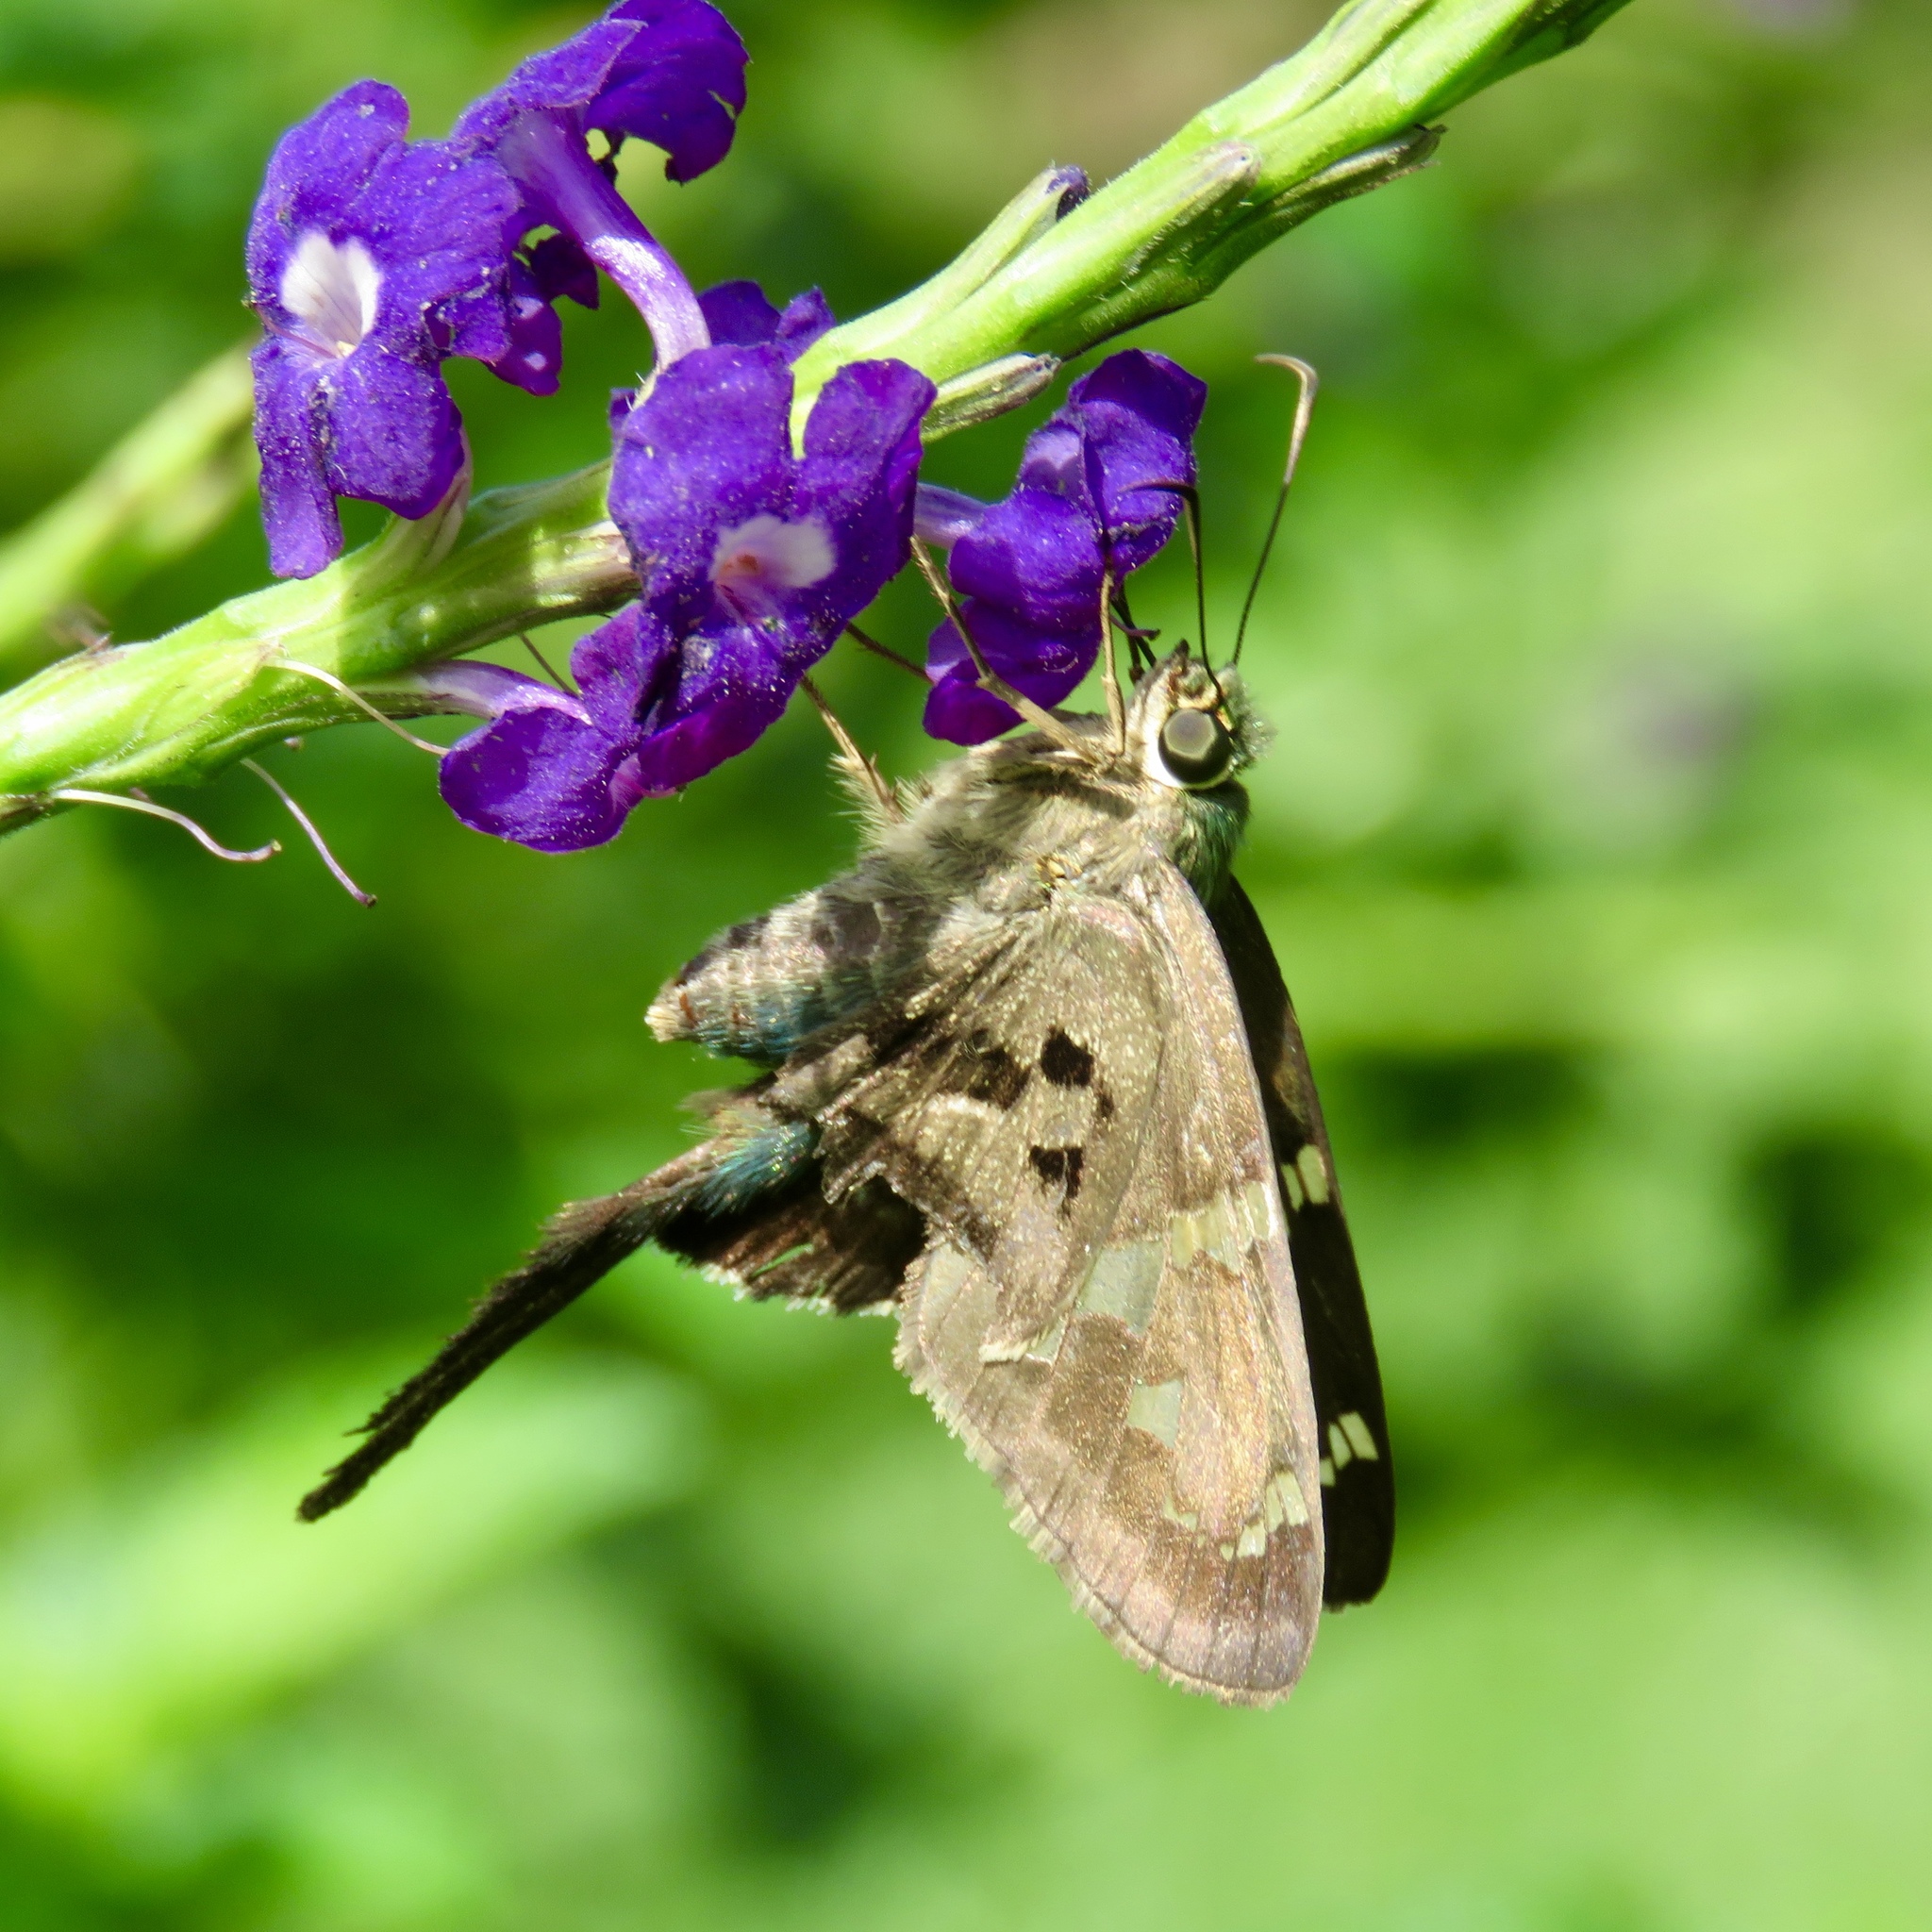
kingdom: Animalia
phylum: Arthropoda
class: Insecta
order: Lepidoptera
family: Hesperiidae
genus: Urbanus
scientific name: Urbanus proteus
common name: Long-tailed skipper
